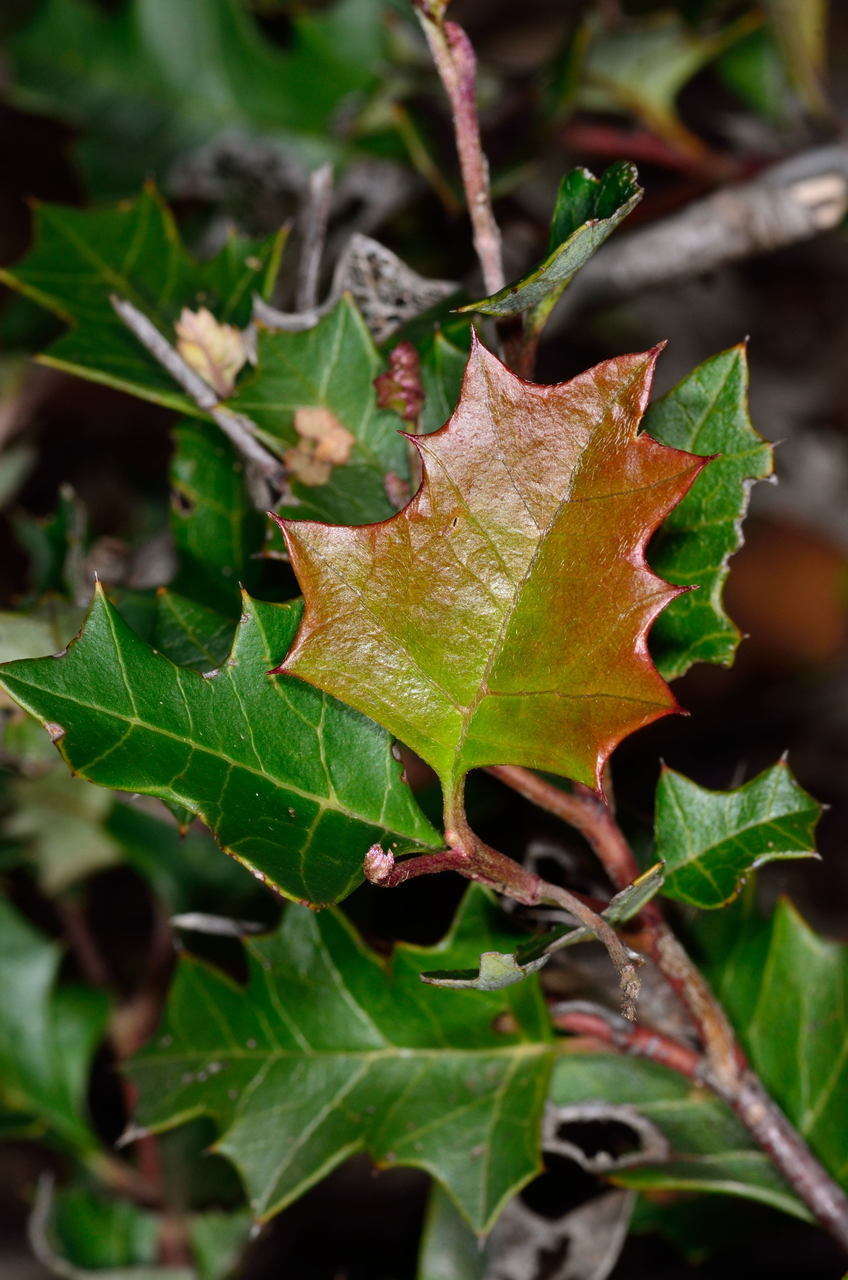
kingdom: Plantae
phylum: Tracheophyta
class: Magnoliopsida
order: Proteales
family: Proteaceae
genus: Grevillea
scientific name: Grevillea steiglitziana
